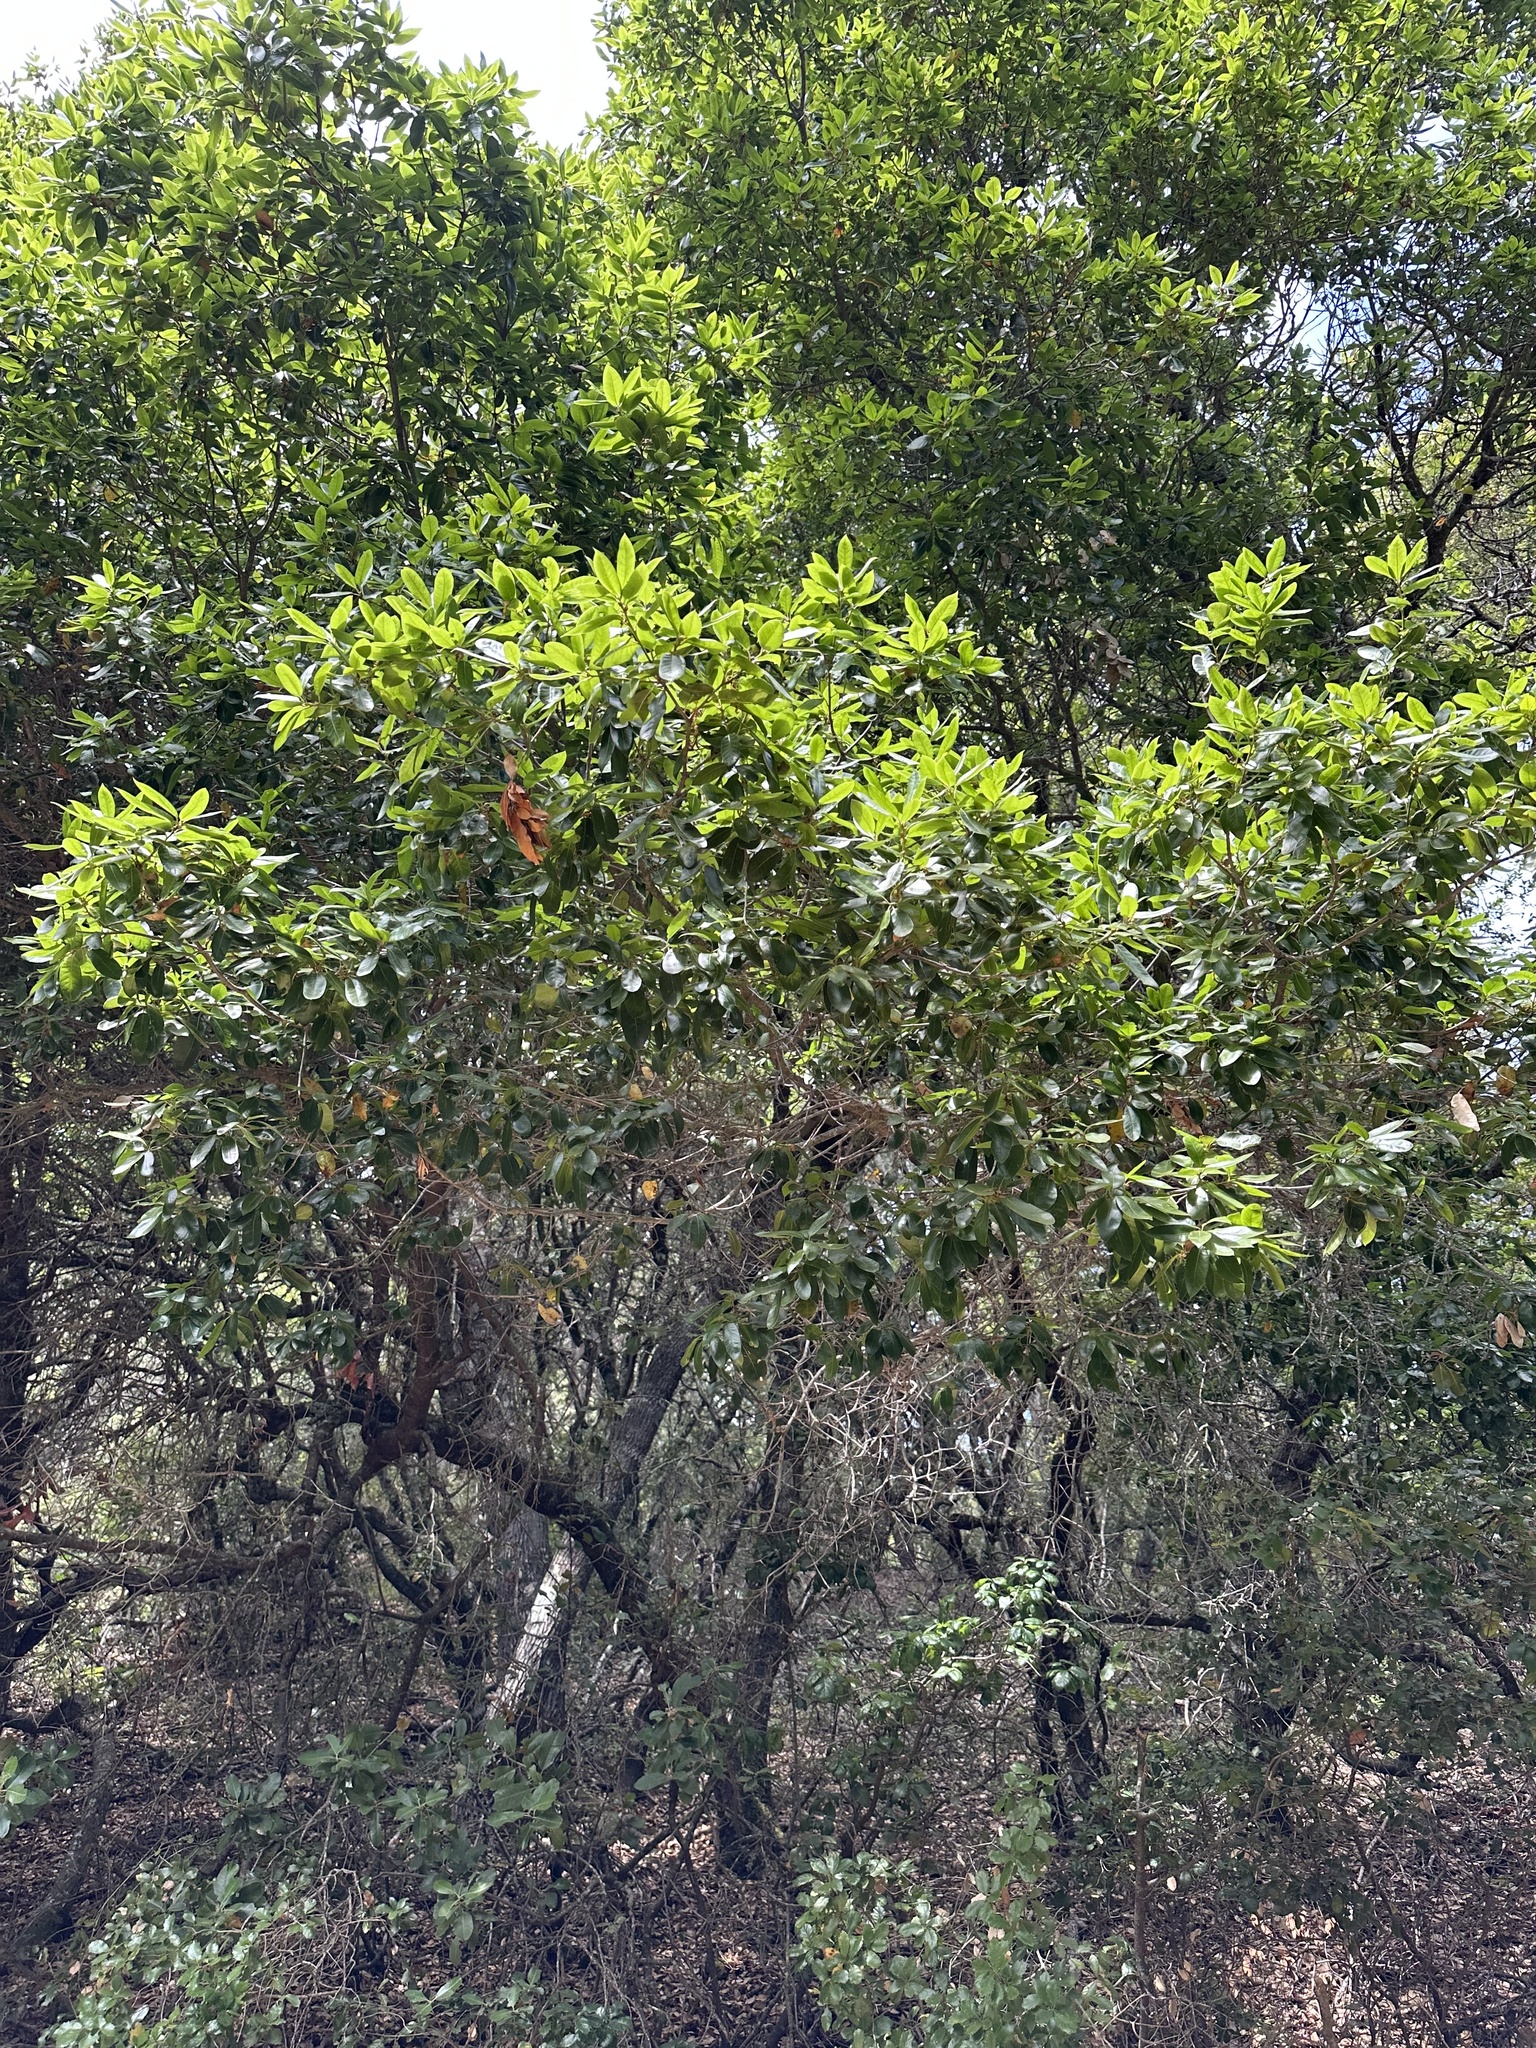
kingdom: Plantae
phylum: Tracheophyta
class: Magnoliopsida
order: Fagales
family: Fagaceae
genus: Quercus
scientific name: Quercus parvula
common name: Santa cruz island oak
